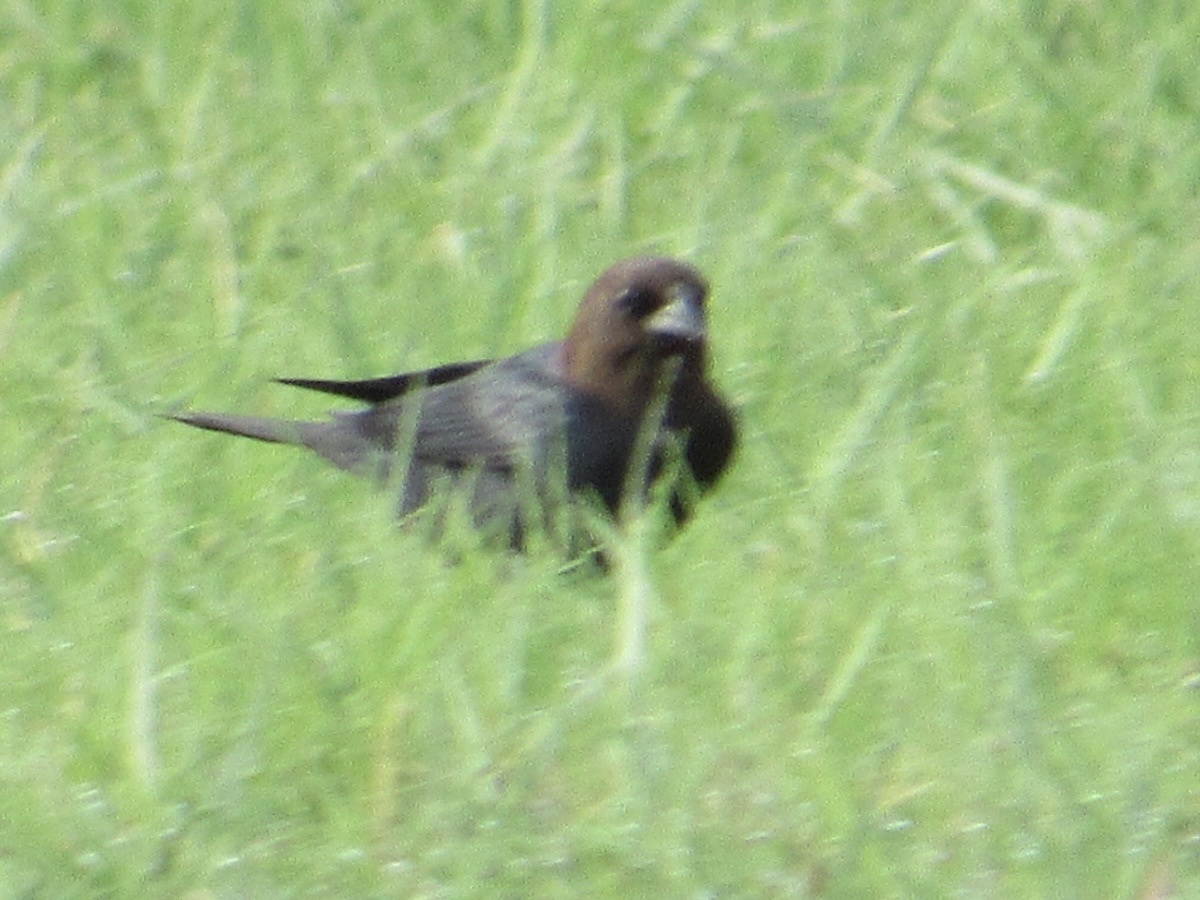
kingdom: Animalia
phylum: Chordata
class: Aves
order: Passeriformes
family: Icteridae
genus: Molothrus
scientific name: Molothrus ater
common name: Brown-headed cowbird
